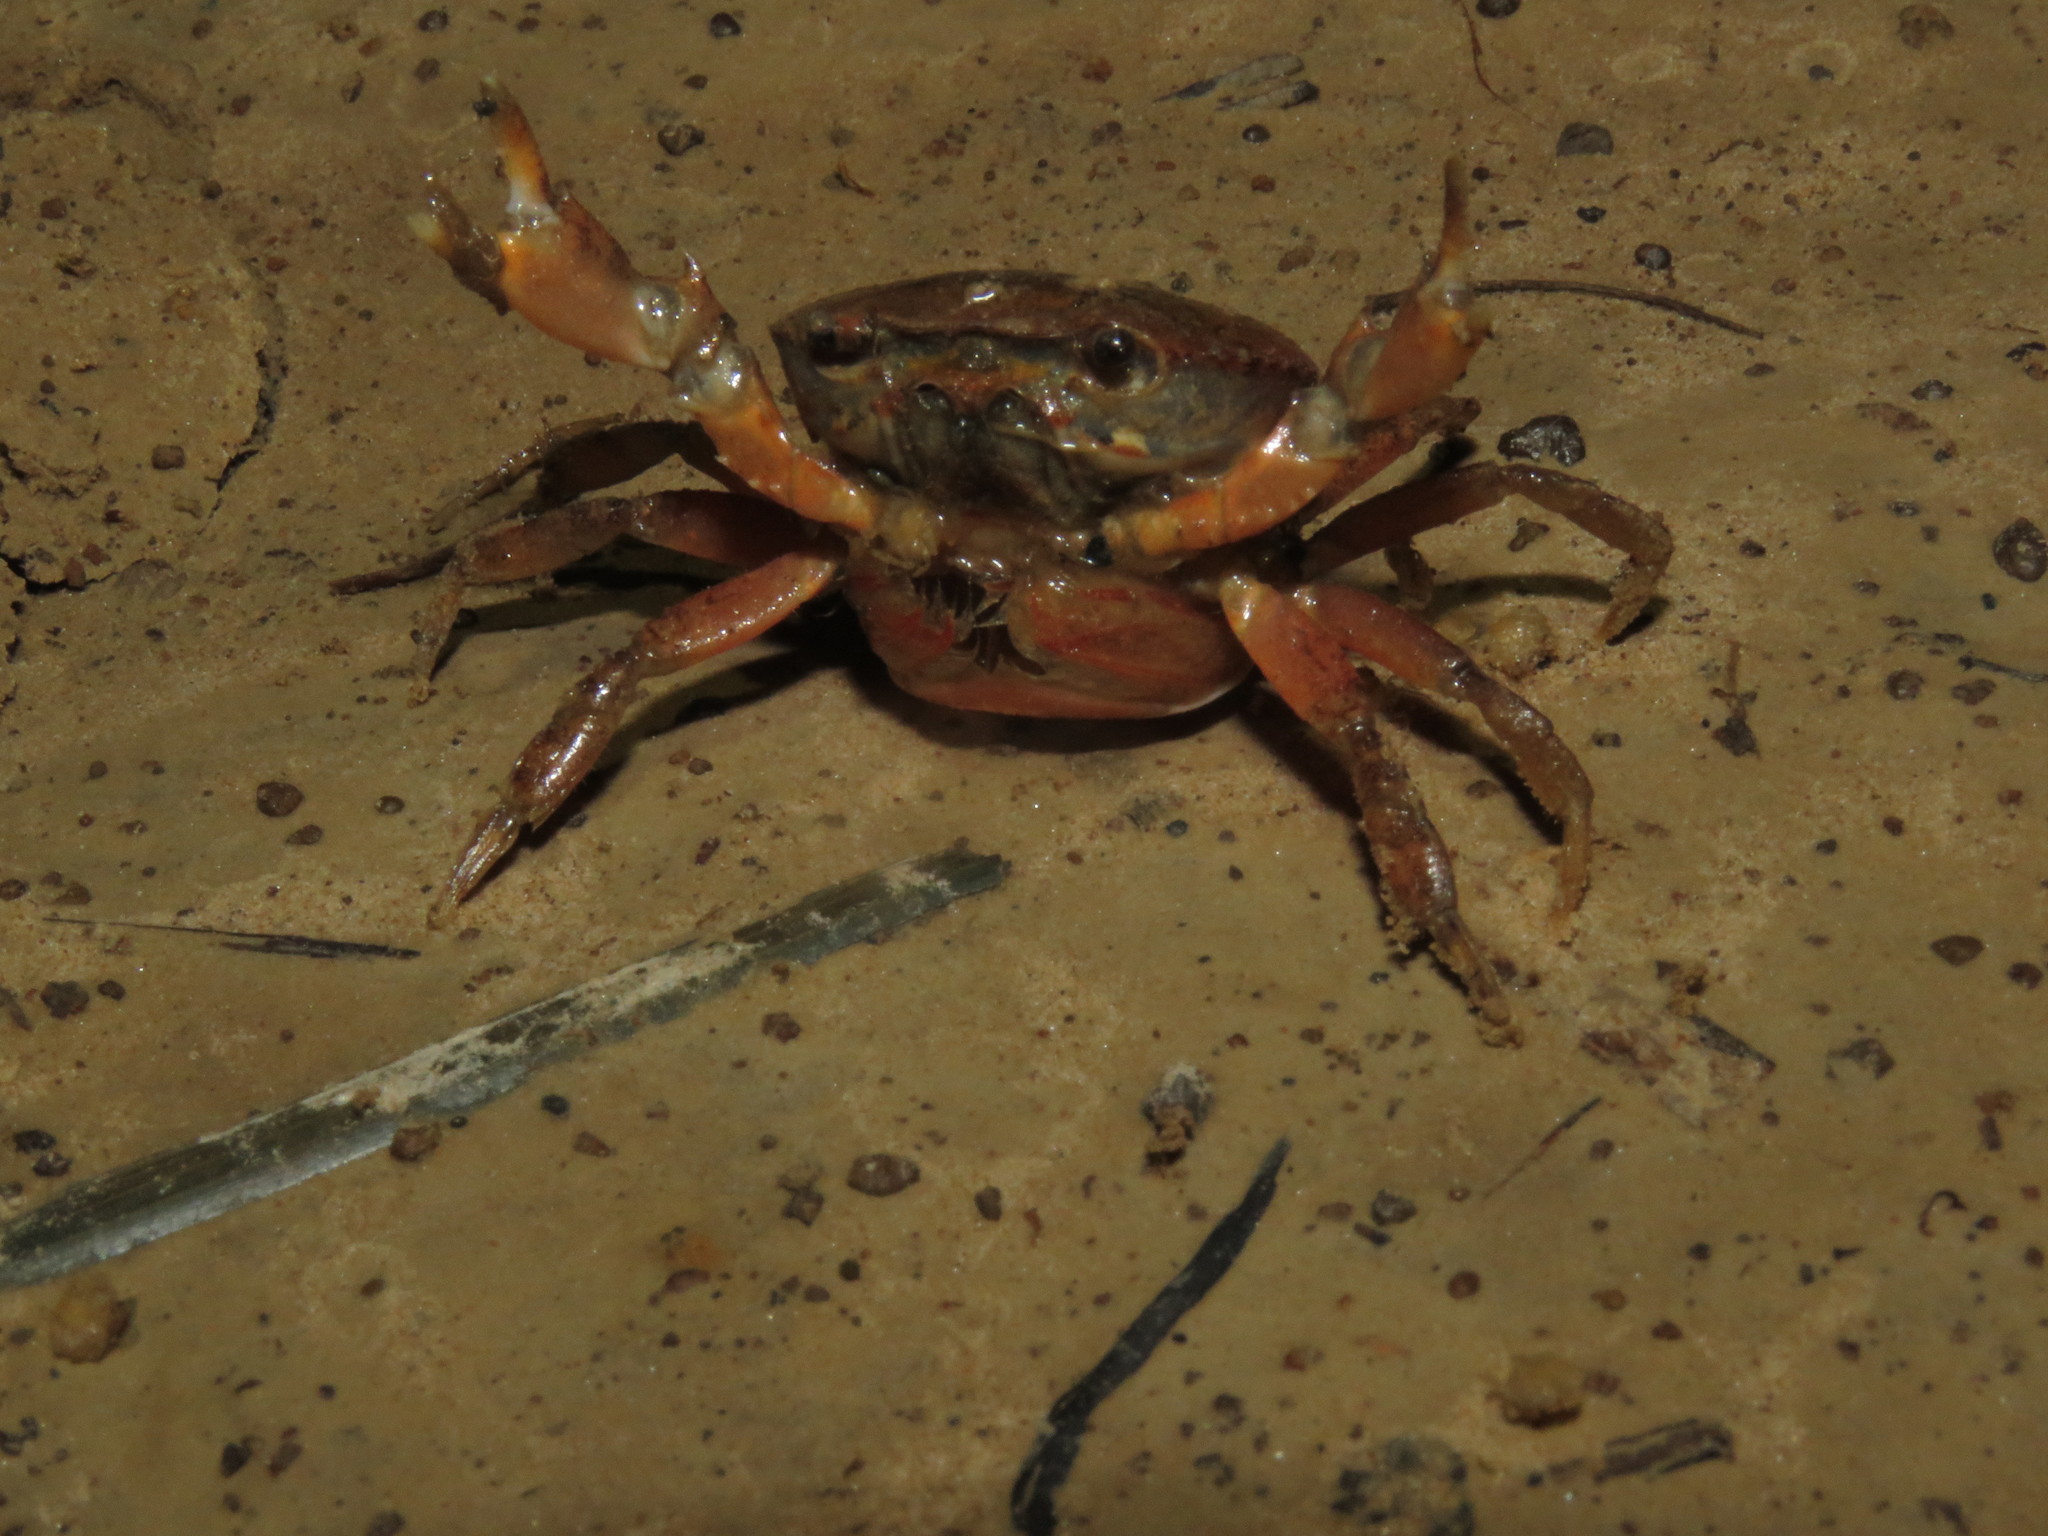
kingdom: Animalia
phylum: Arthropoda
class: Malacostraca
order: Decapoda
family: Trichodactylidae
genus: Dilocarcinus
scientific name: Dilocarcinus pagei
